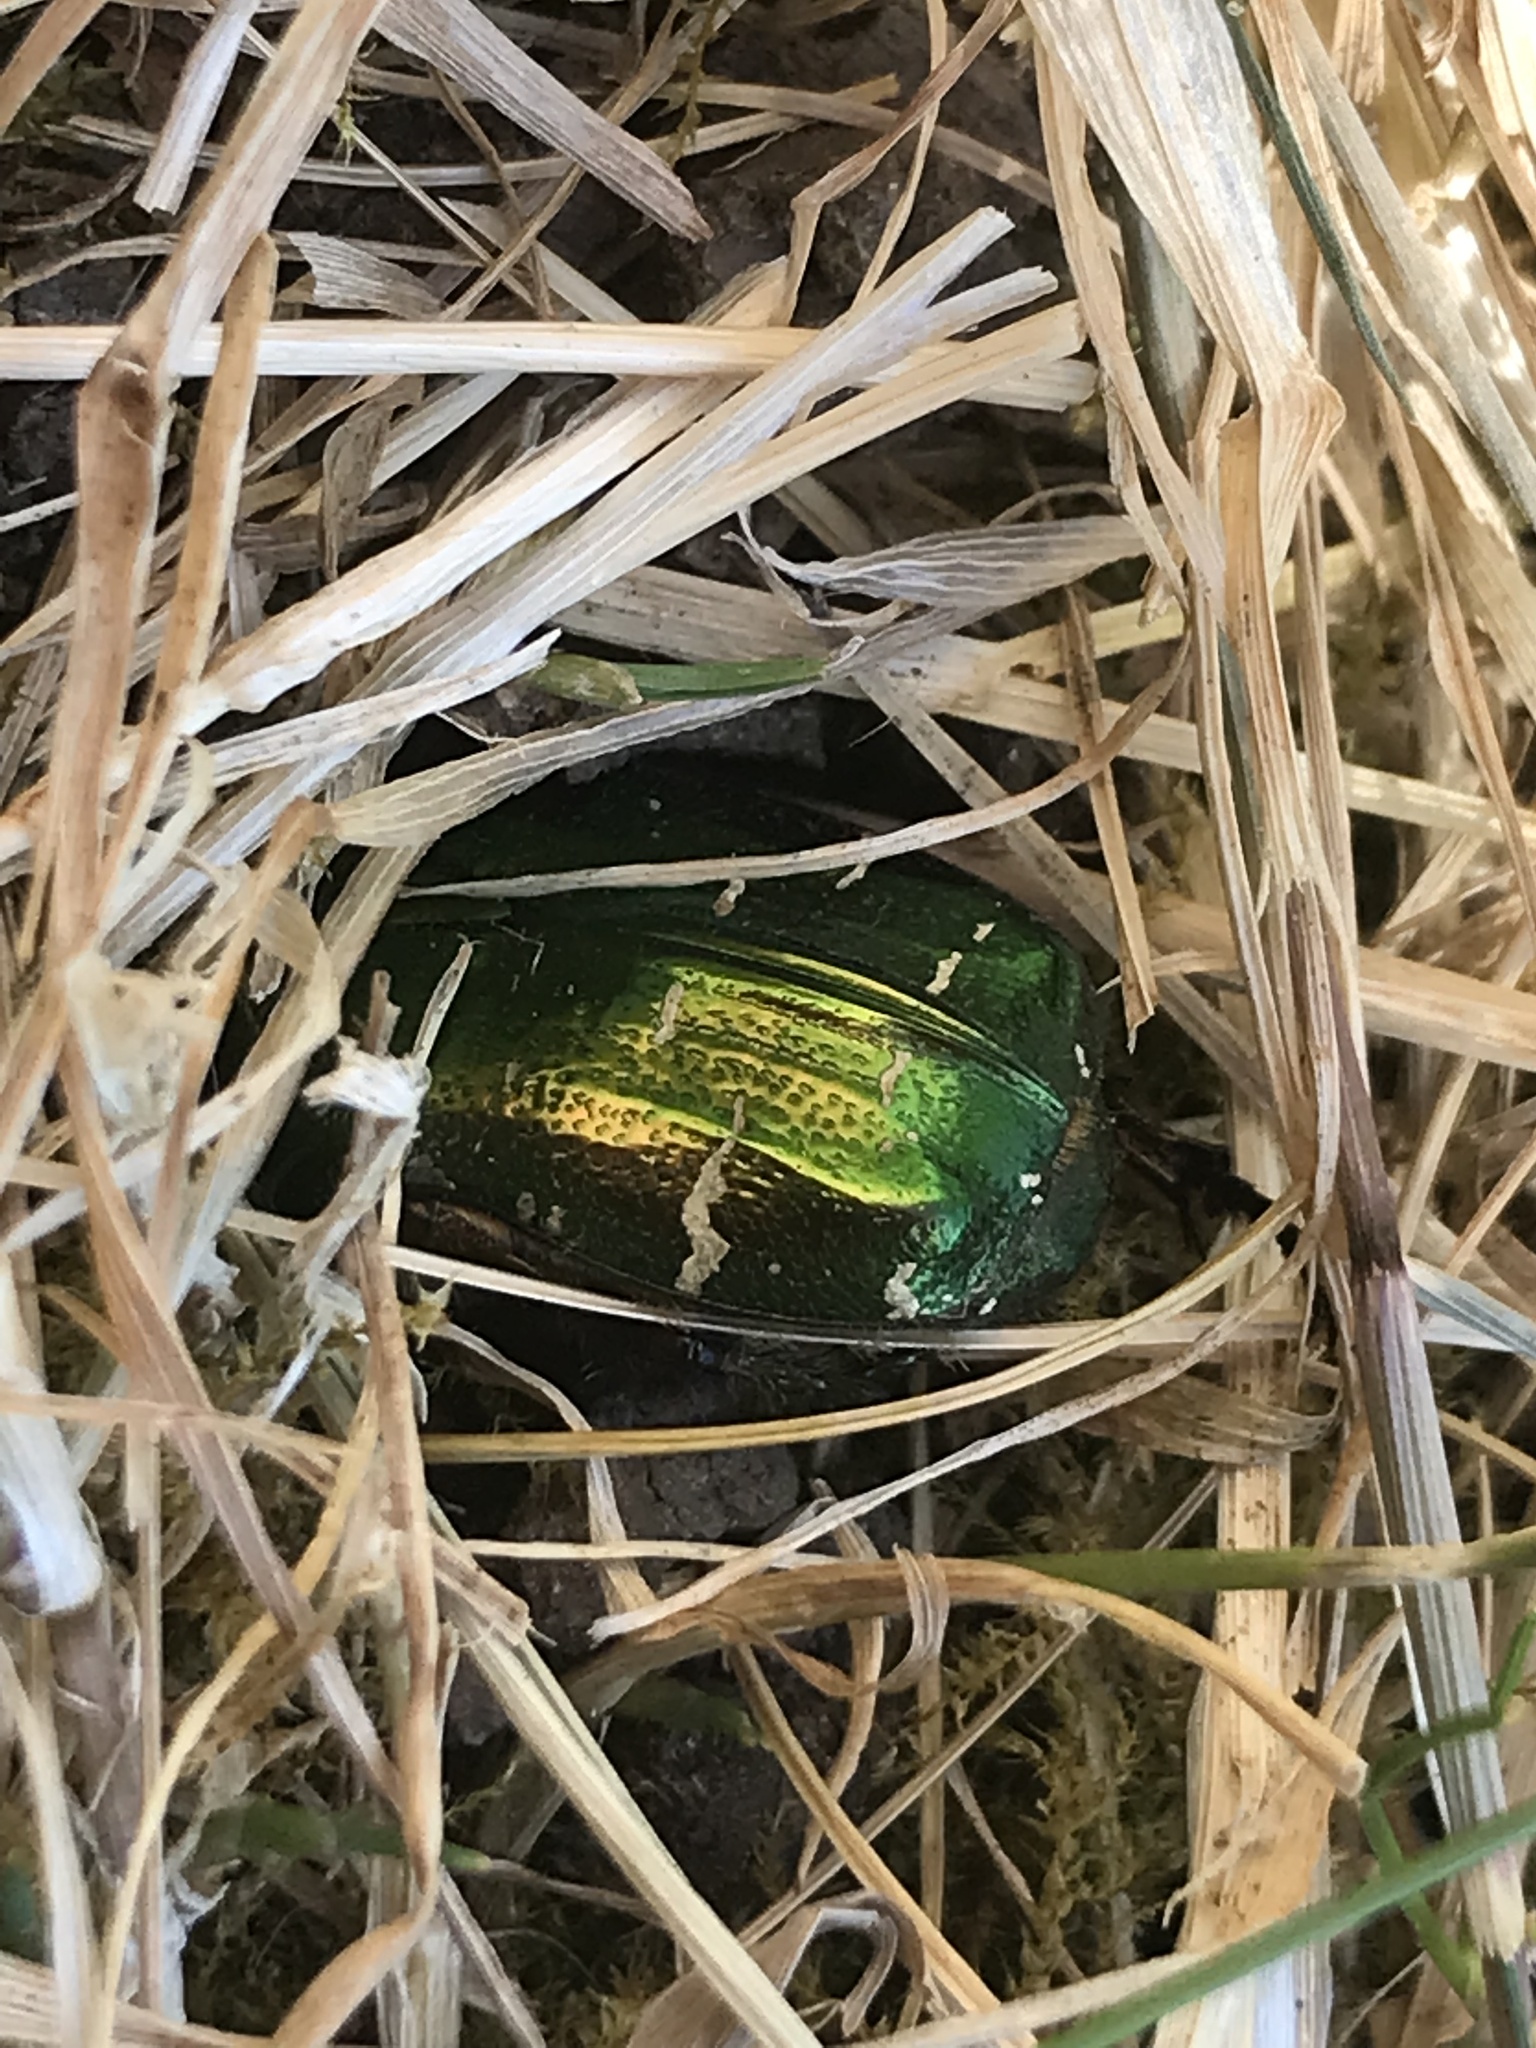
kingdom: Animalia
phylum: Arthropoda
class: Insecta
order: Coleoptera
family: Scarabaeidae
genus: Cetonia
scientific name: Cetonia aurata
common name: Rose chafer
